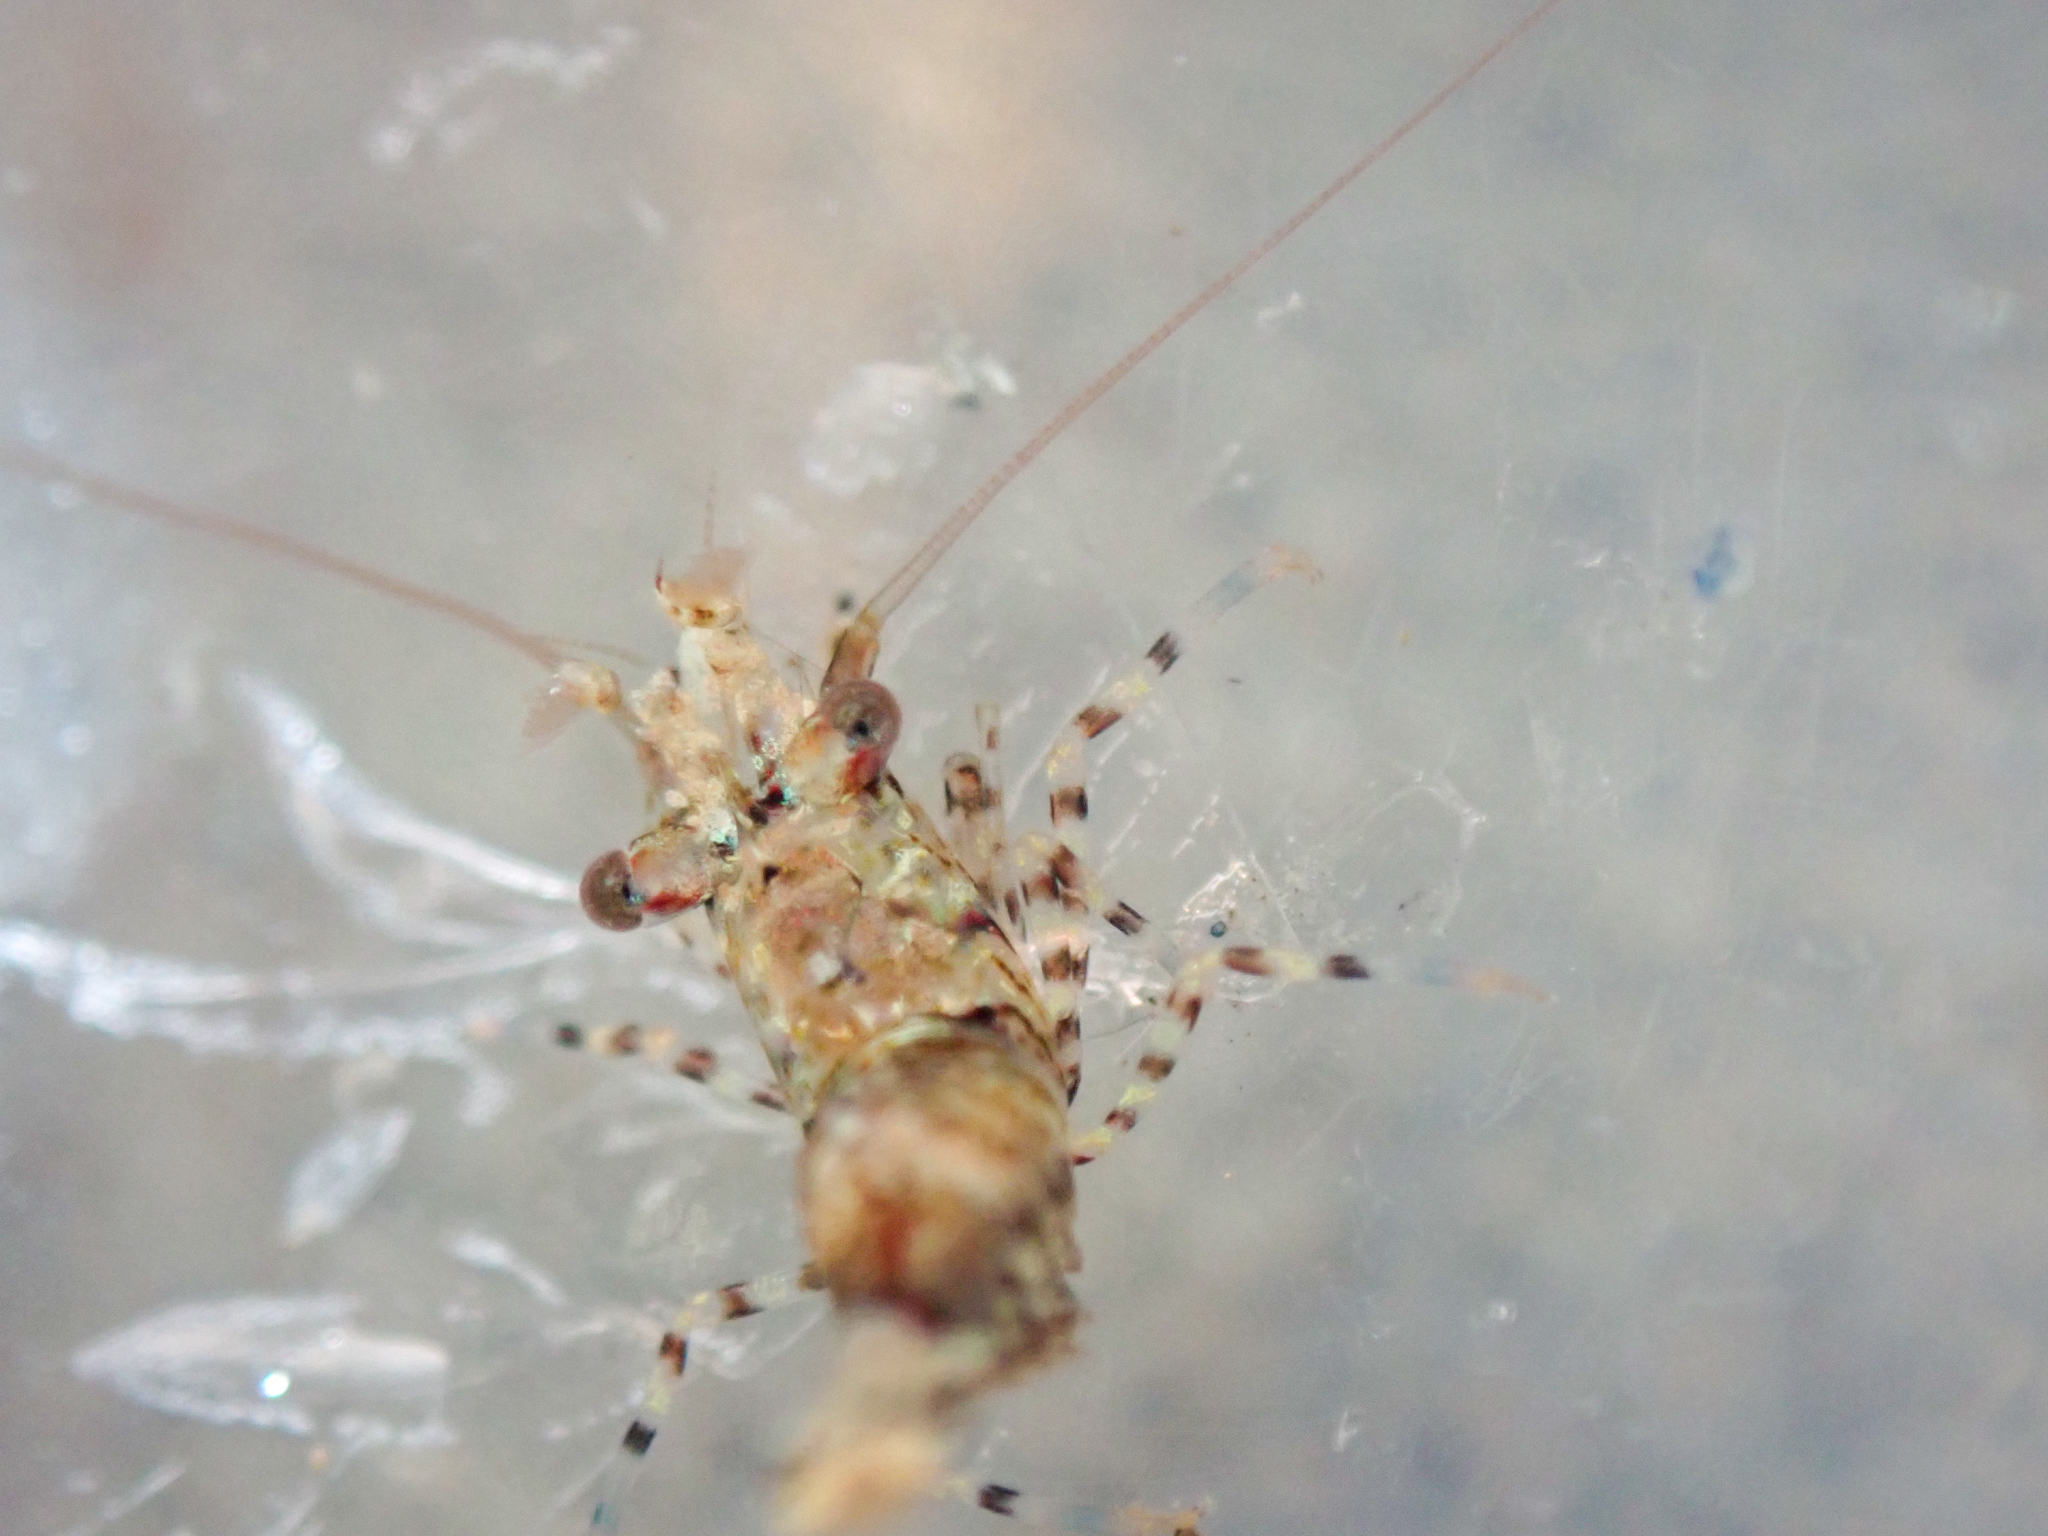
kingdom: Animalia
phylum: Arthropoda
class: Malacostraca
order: Decapoda
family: Thoridae
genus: Heptacarpus
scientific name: Heptacarpus palpator
